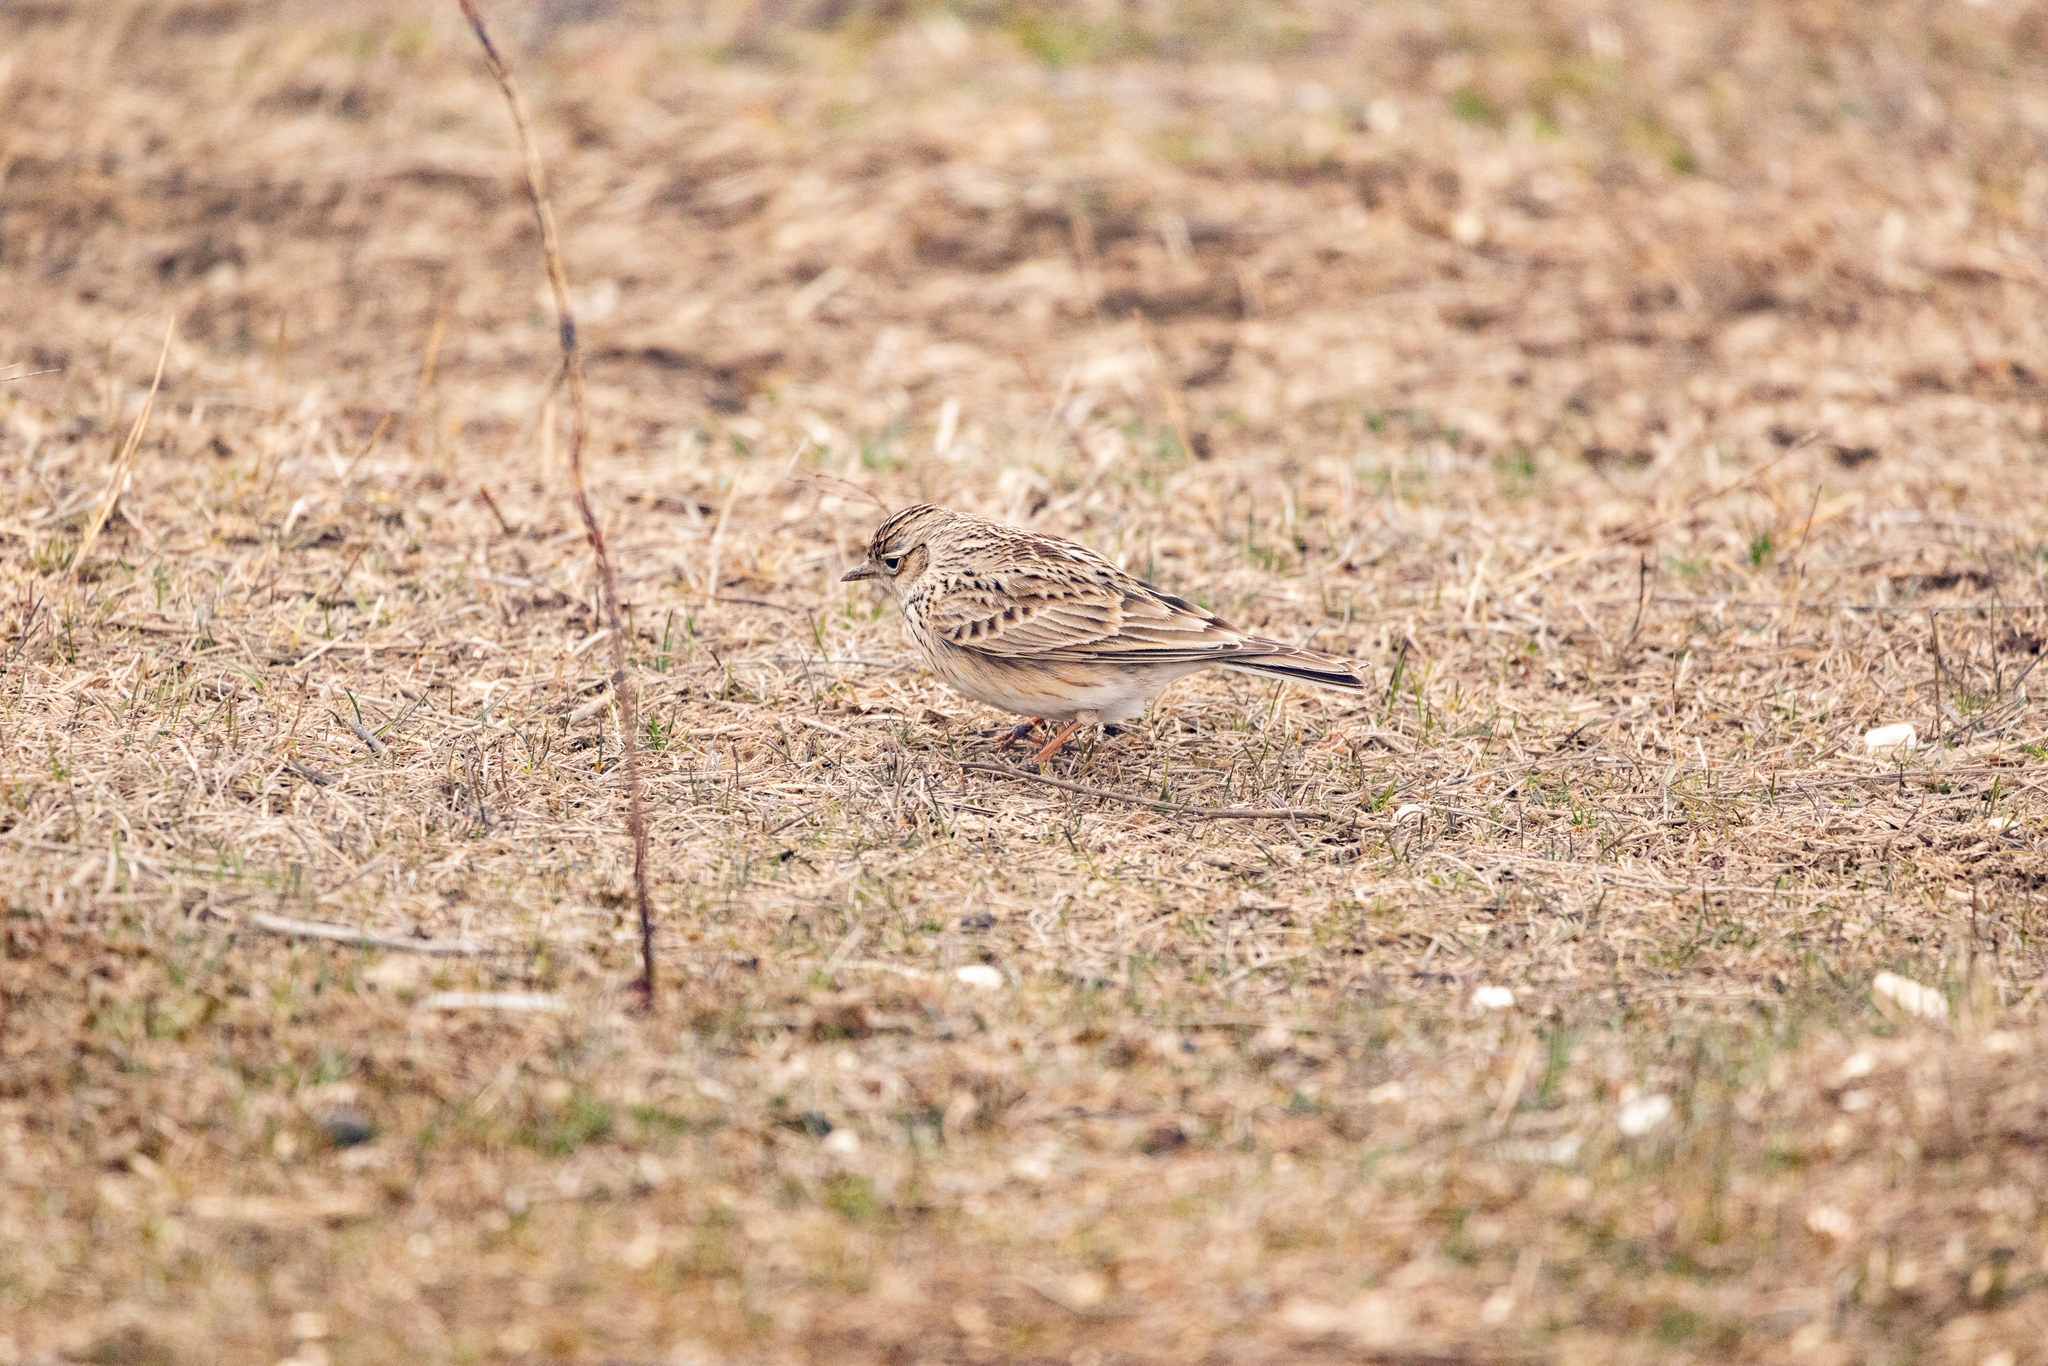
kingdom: Animalia
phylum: Chordata
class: Aves
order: Passeriformes
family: Alaudidae
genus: Alauda
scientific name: Alauda arvensis
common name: Eurasian skylark
